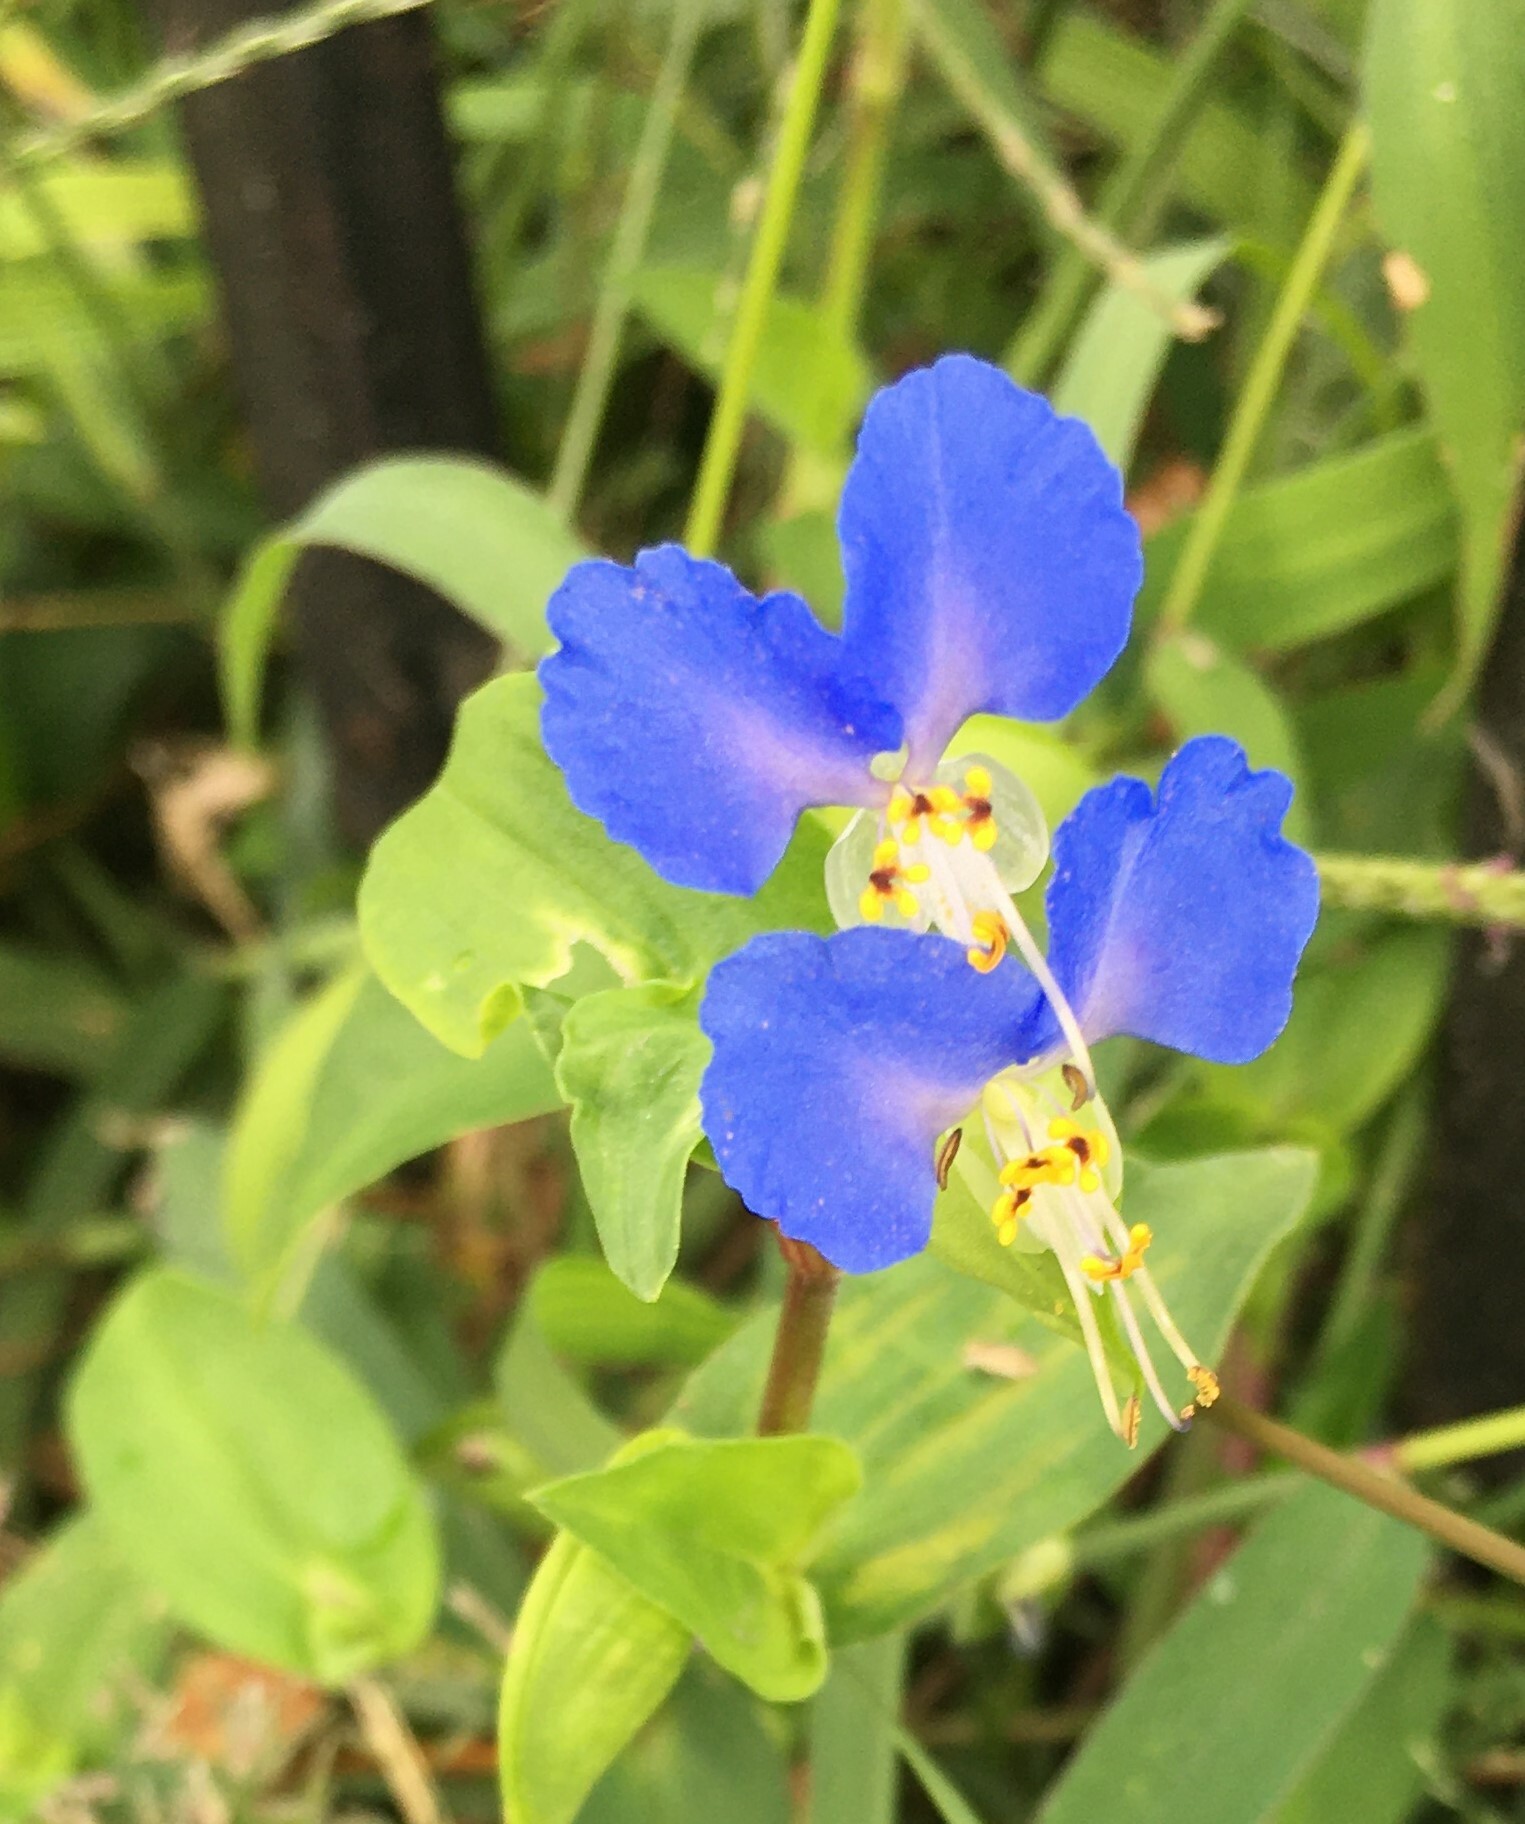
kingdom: Plantae
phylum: Tracheophyta
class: Liliopsida
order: Commelinales
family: Commelinaceae
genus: Commelina
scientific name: Commelina communis
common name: Asiatic dayflower
